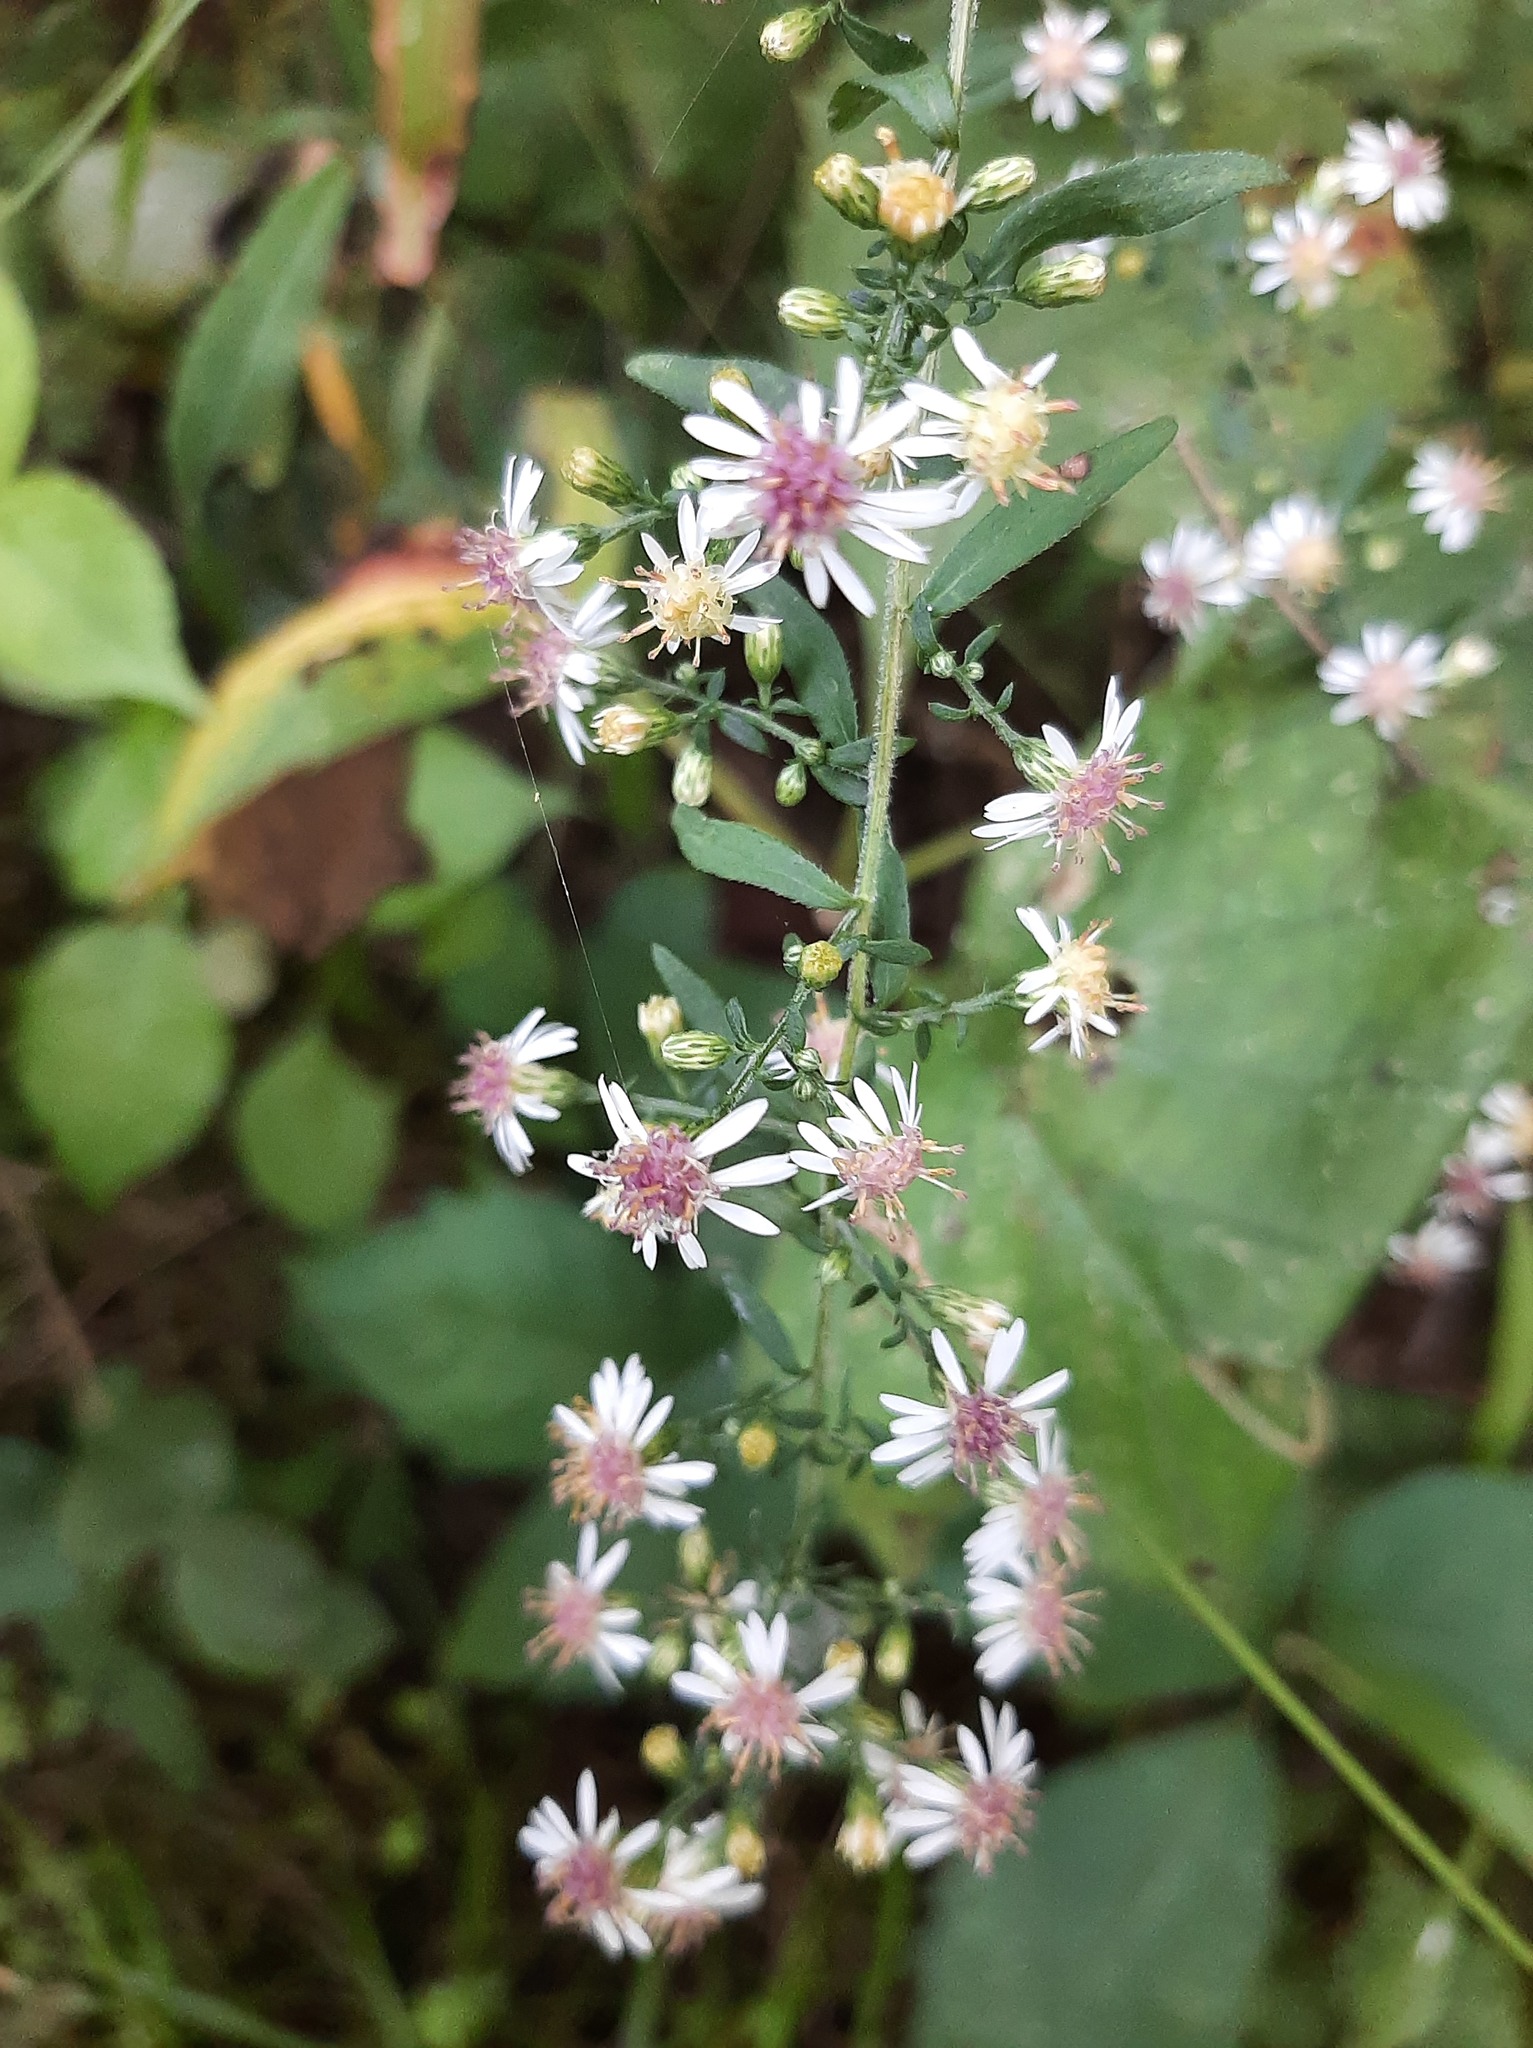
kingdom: Plantae
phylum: Tracheophyta
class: Magnoliopsida
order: Asterales
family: Asteraceae
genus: Symphyotrichum
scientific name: Symphyotrichum lateriflorum
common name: Calico aster
